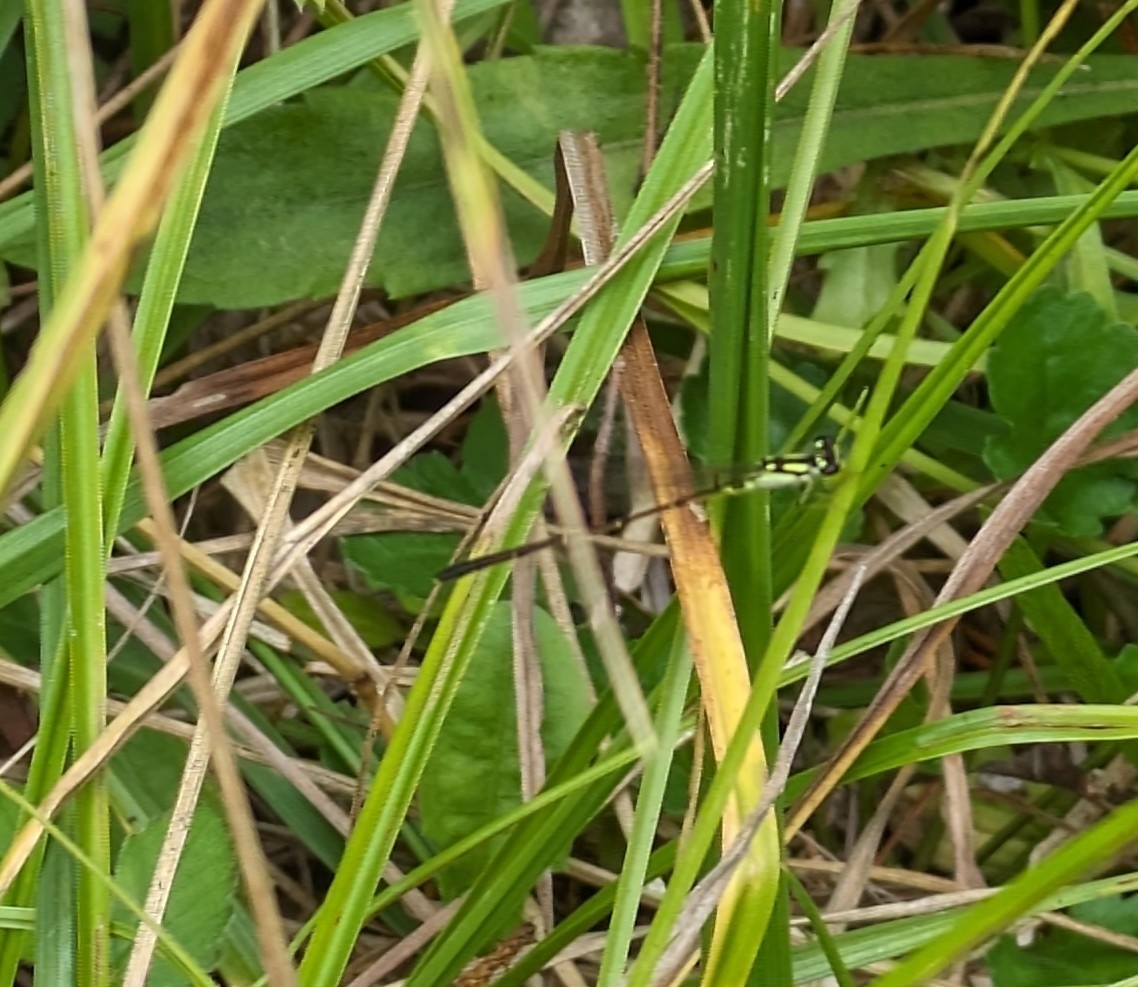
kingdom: Animalia
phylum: Arthropoda
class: Insecta
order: Odonata
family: Coenagrionidae
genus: Ischnura
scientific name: Ischnura posita
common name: Fragile forktail
